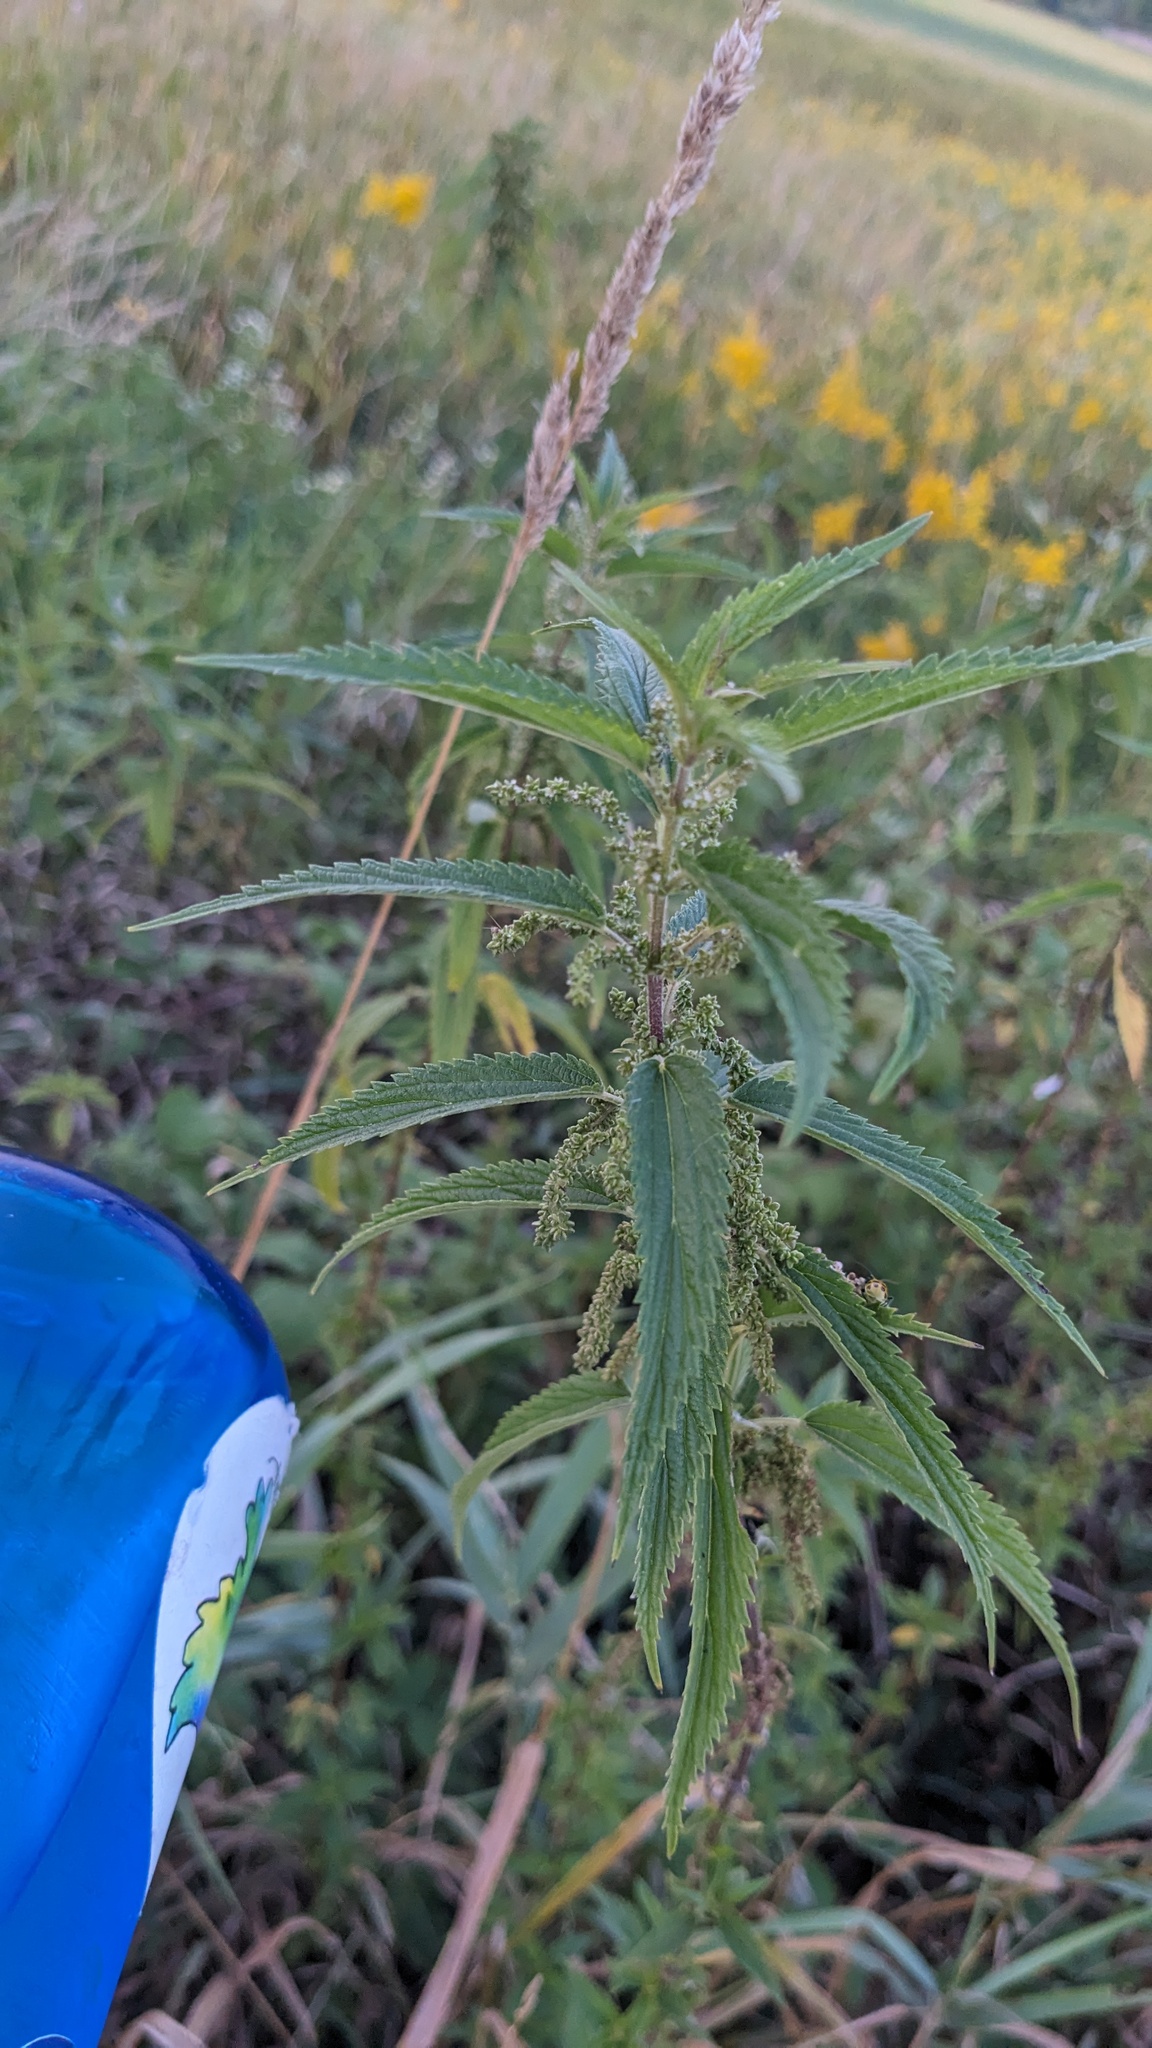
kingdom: Plantae
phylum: Tracheophyta
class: Magnoliopsida
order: Rosales
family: Urticaceae
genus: Urtica
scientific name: Urtica gracilis
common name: Slender stinging nettle
